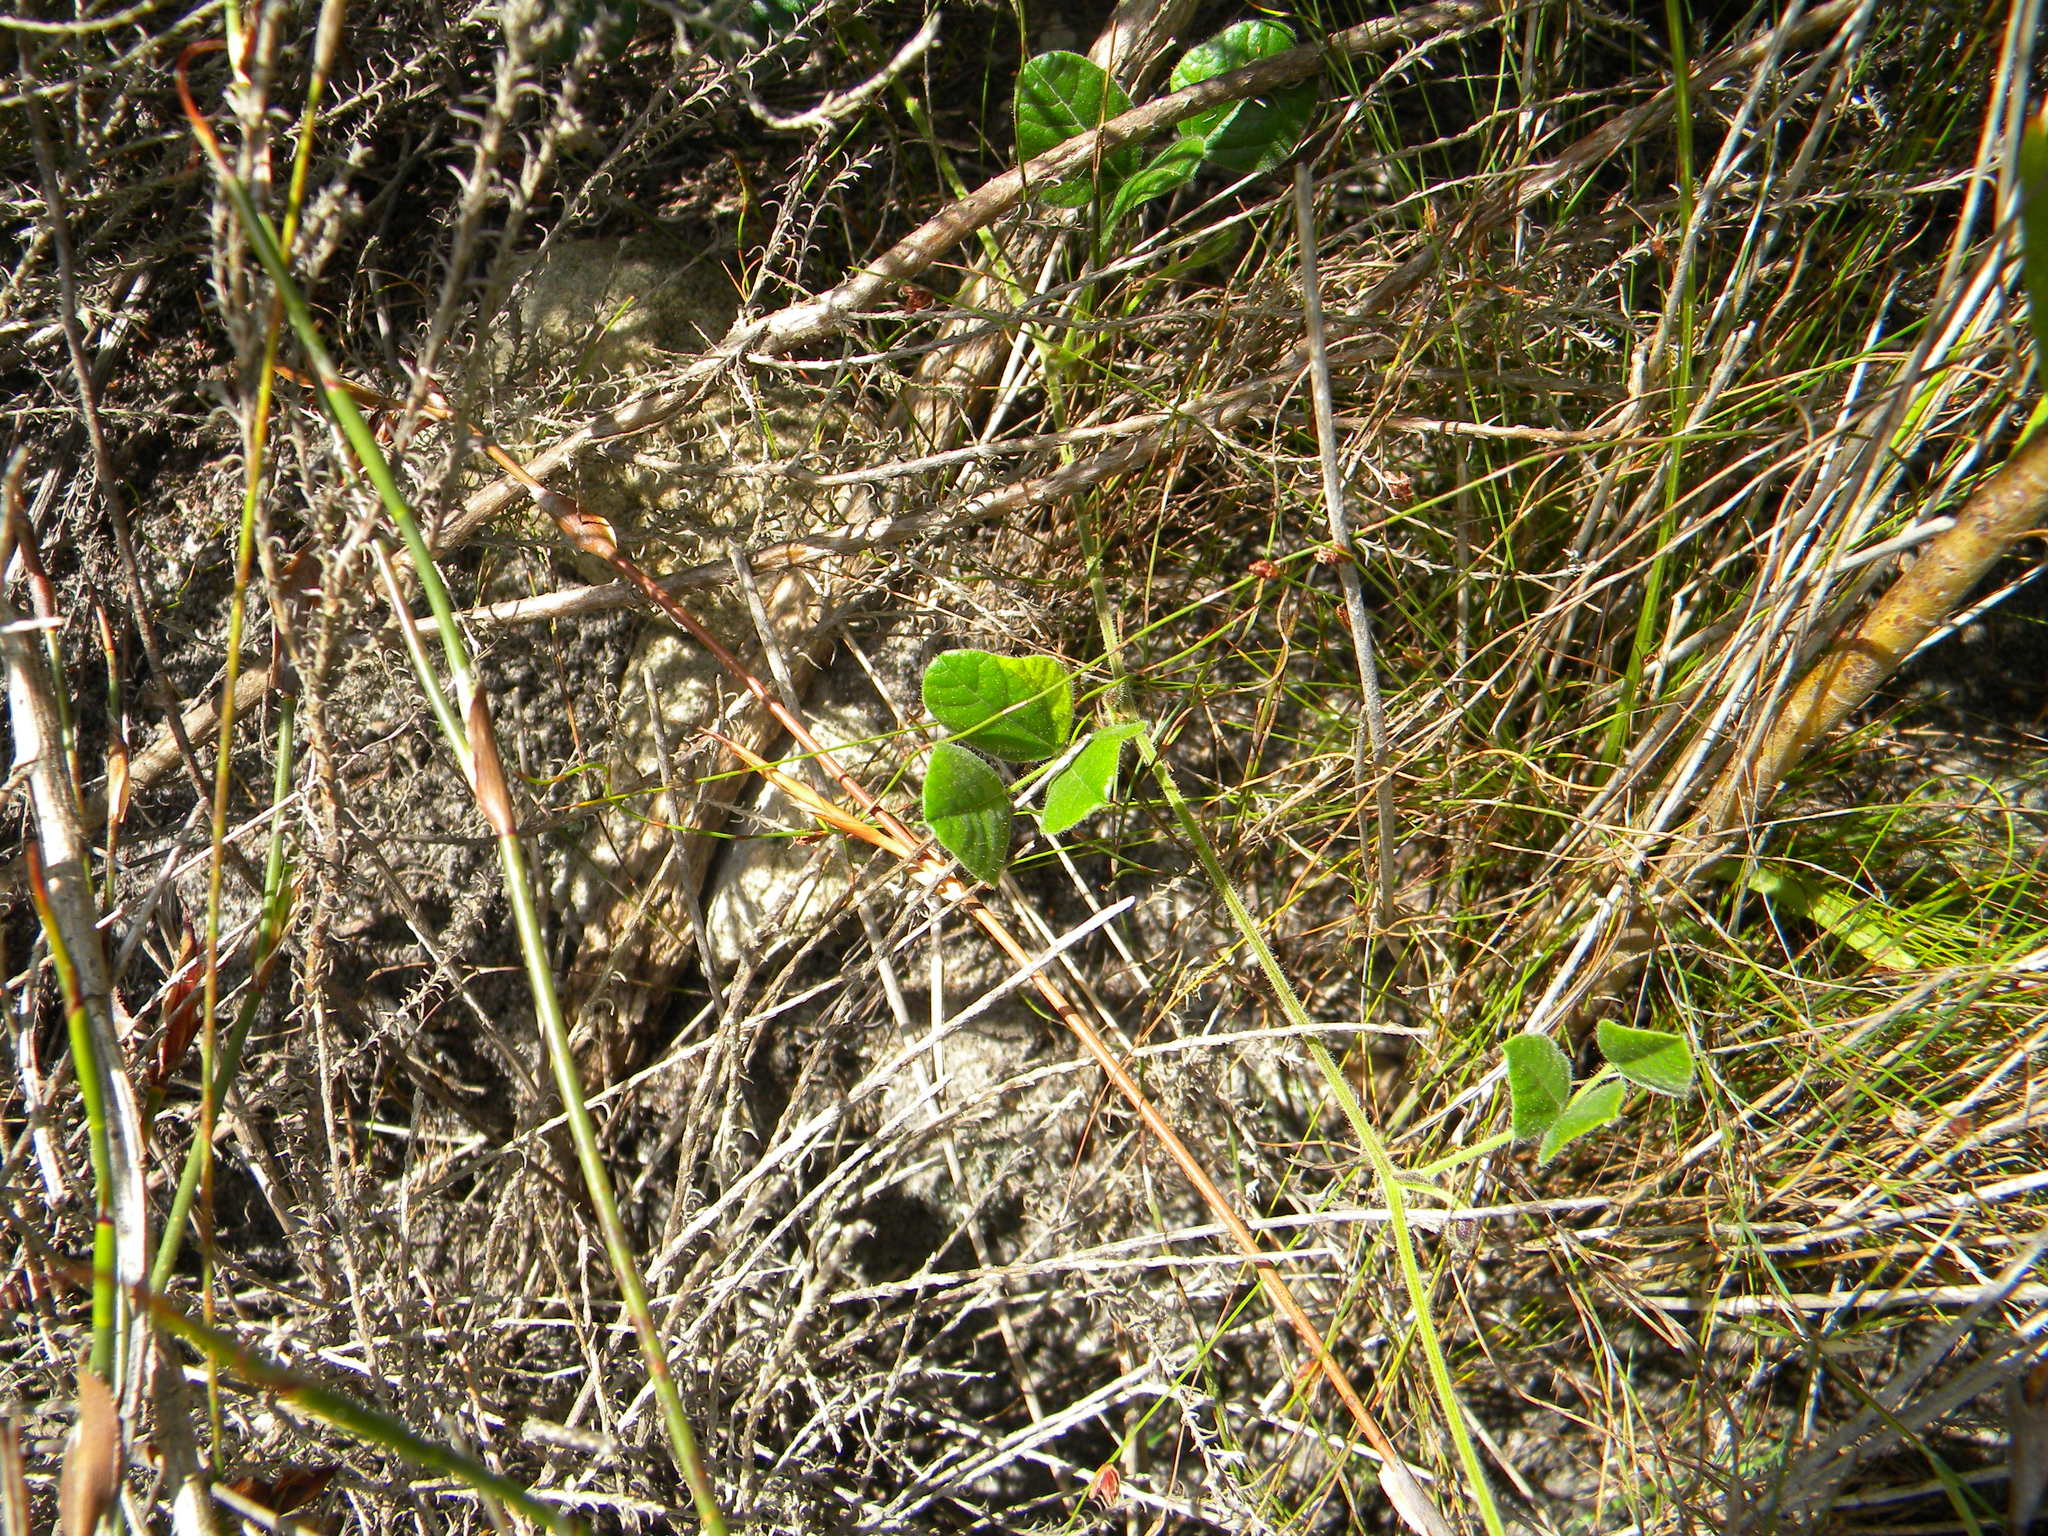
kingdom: Plantae
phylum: Tracheophyta
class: Magnoliopsida
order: Fabales
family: Fabaceae
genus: Bolusafra
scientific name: Bolusafra bituminosa
